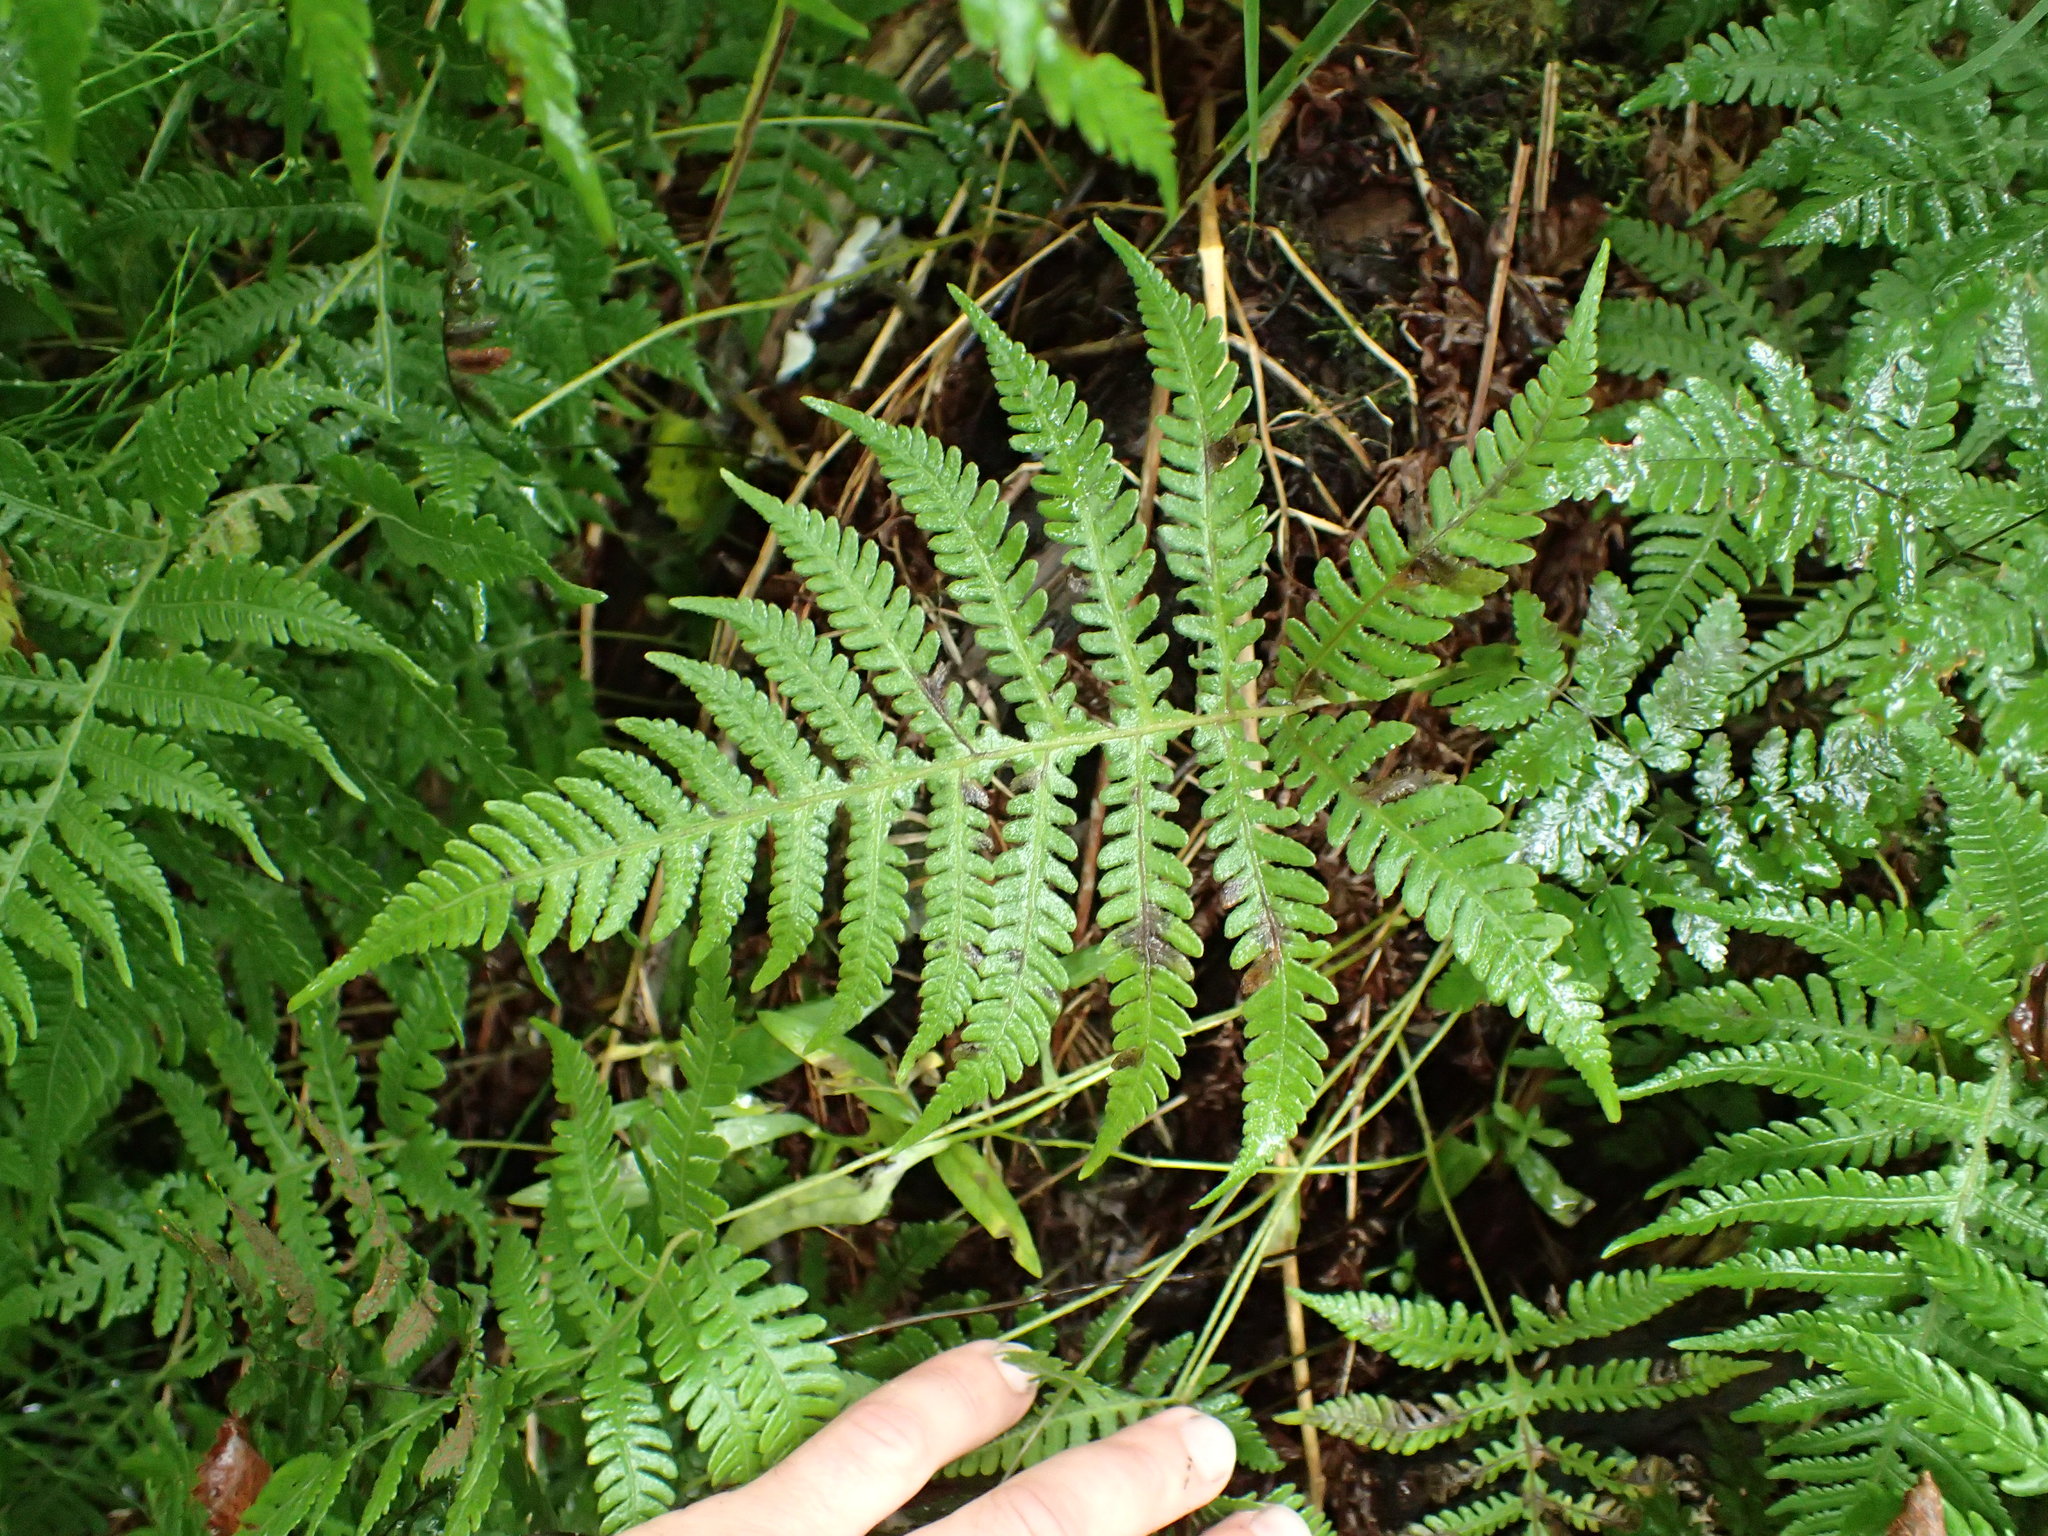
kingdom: Plantae
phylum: Tracheophyta
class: Polypodiopsida
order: Polypodiales
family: Thelypteridaceae
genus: Phegopteris
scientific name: Phegopteris connectilis
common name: Beech fern
